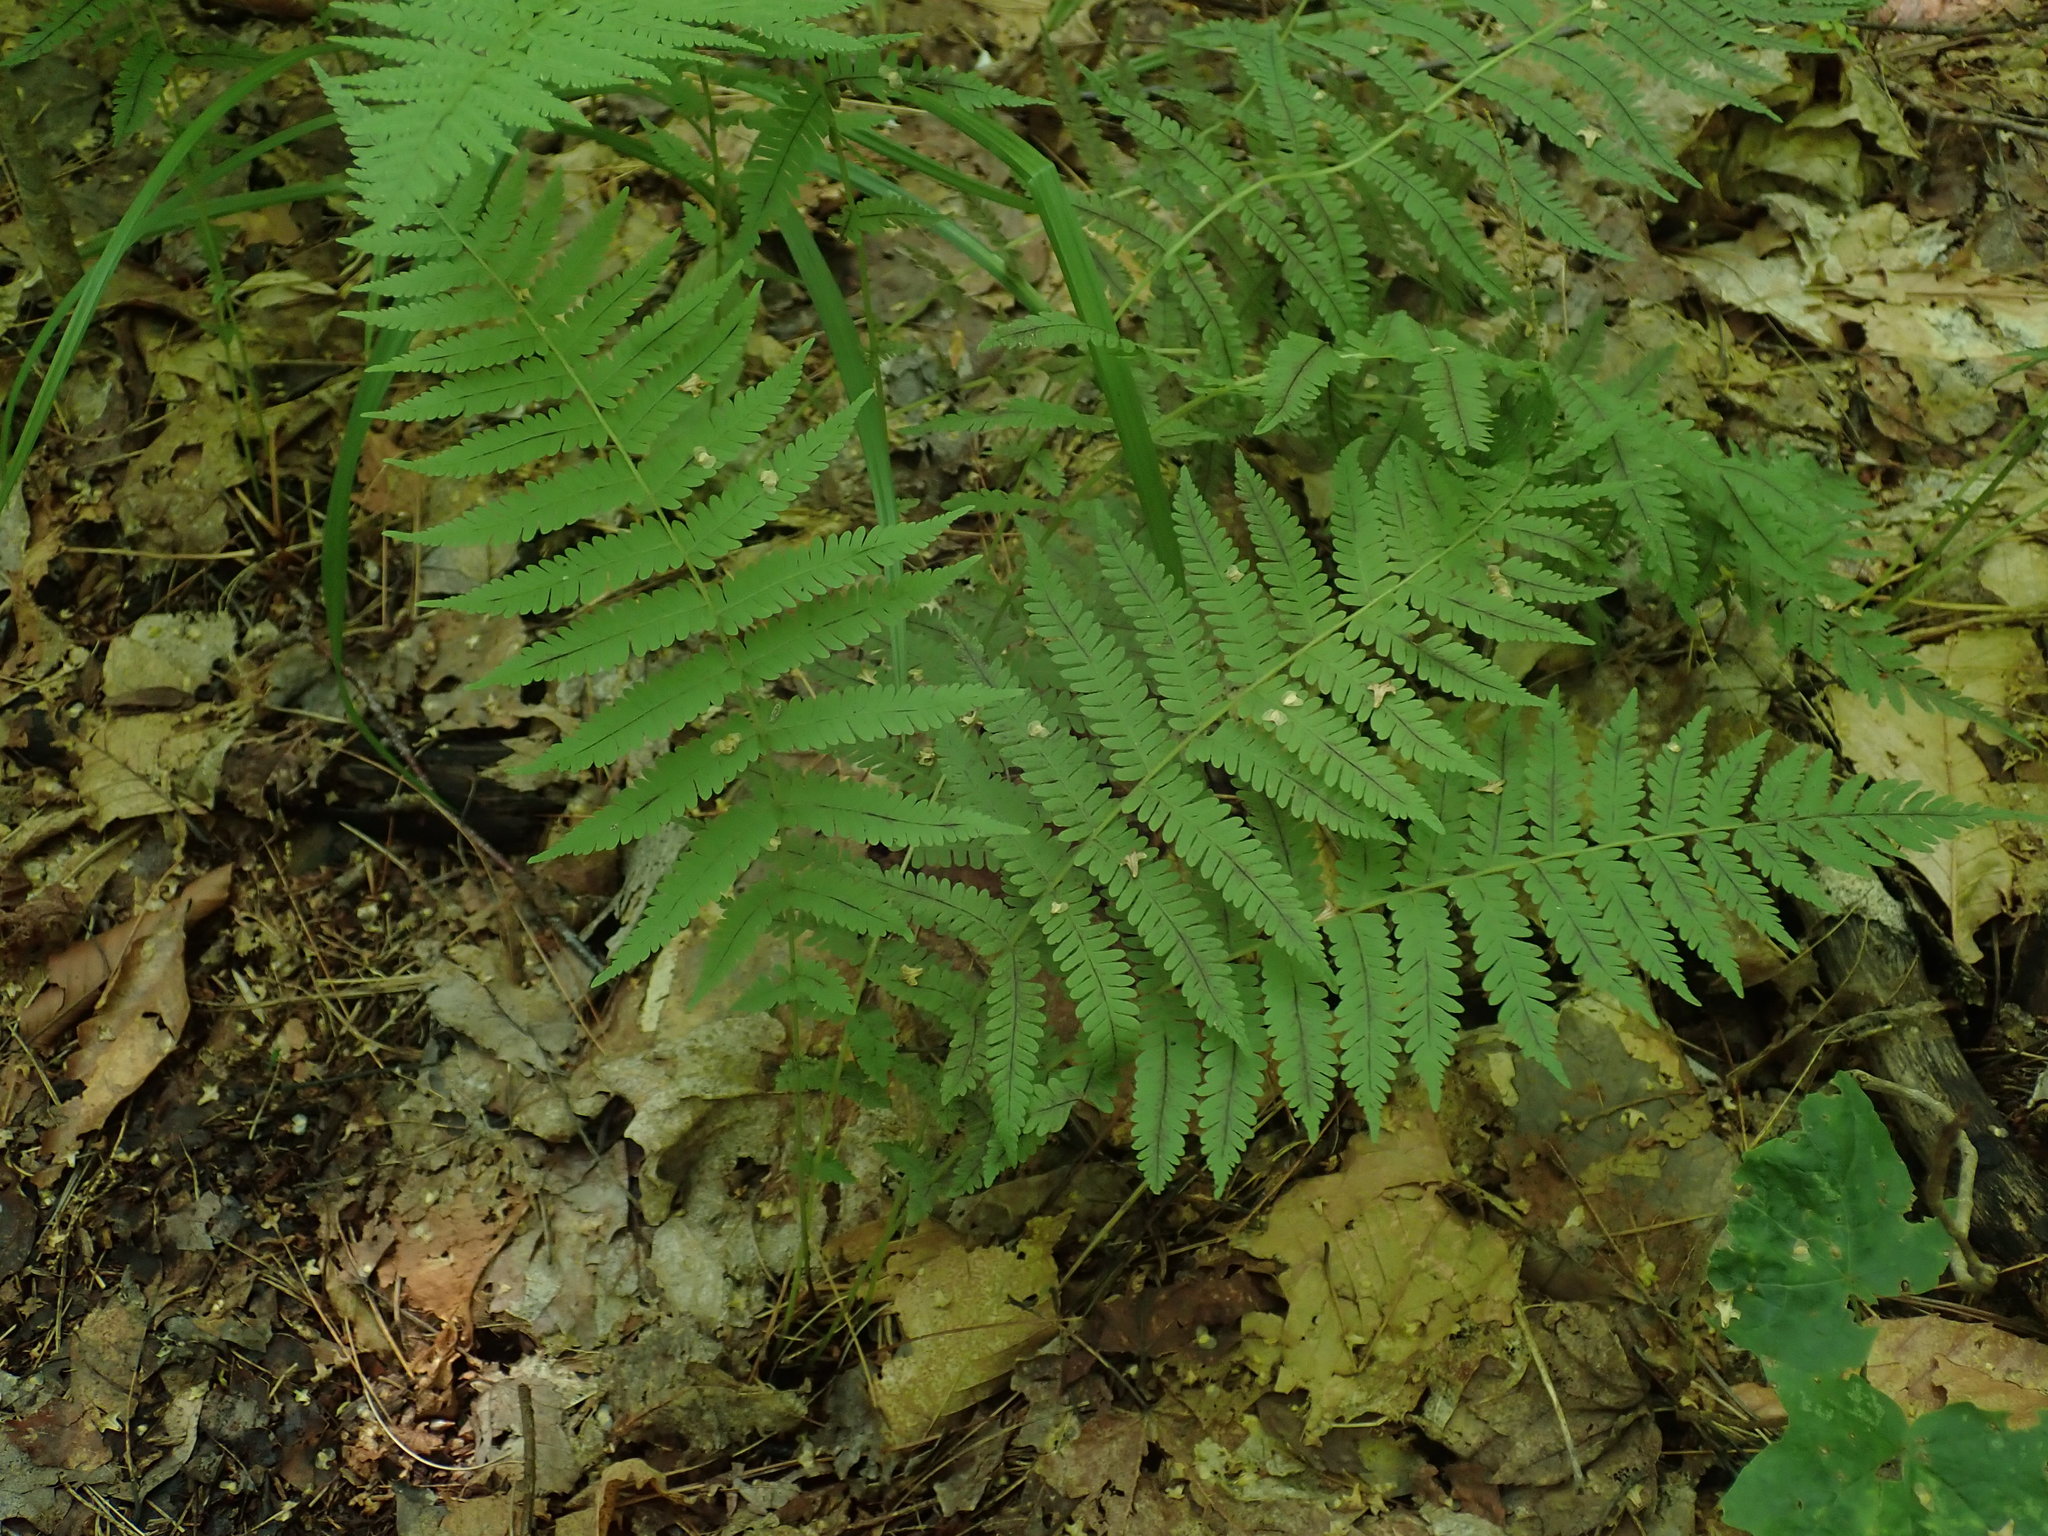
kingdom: Plantae
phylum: Tracheophyta
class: Polypodiopsida
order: Polypodiales
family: Thelypteridaceae
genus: Amauropelta
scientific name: Amauropelta noveboracensis
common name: New york fern
